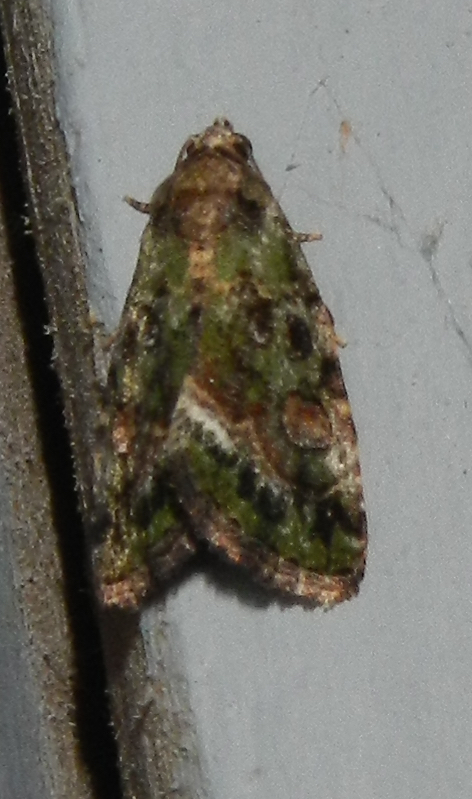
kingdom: Animalia
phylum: Arthropoda
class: Insecta
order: Lepidoptera
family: Noctuidae
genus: Lithacodia
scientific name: Lithacodia musta
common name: Small mossy glyph
